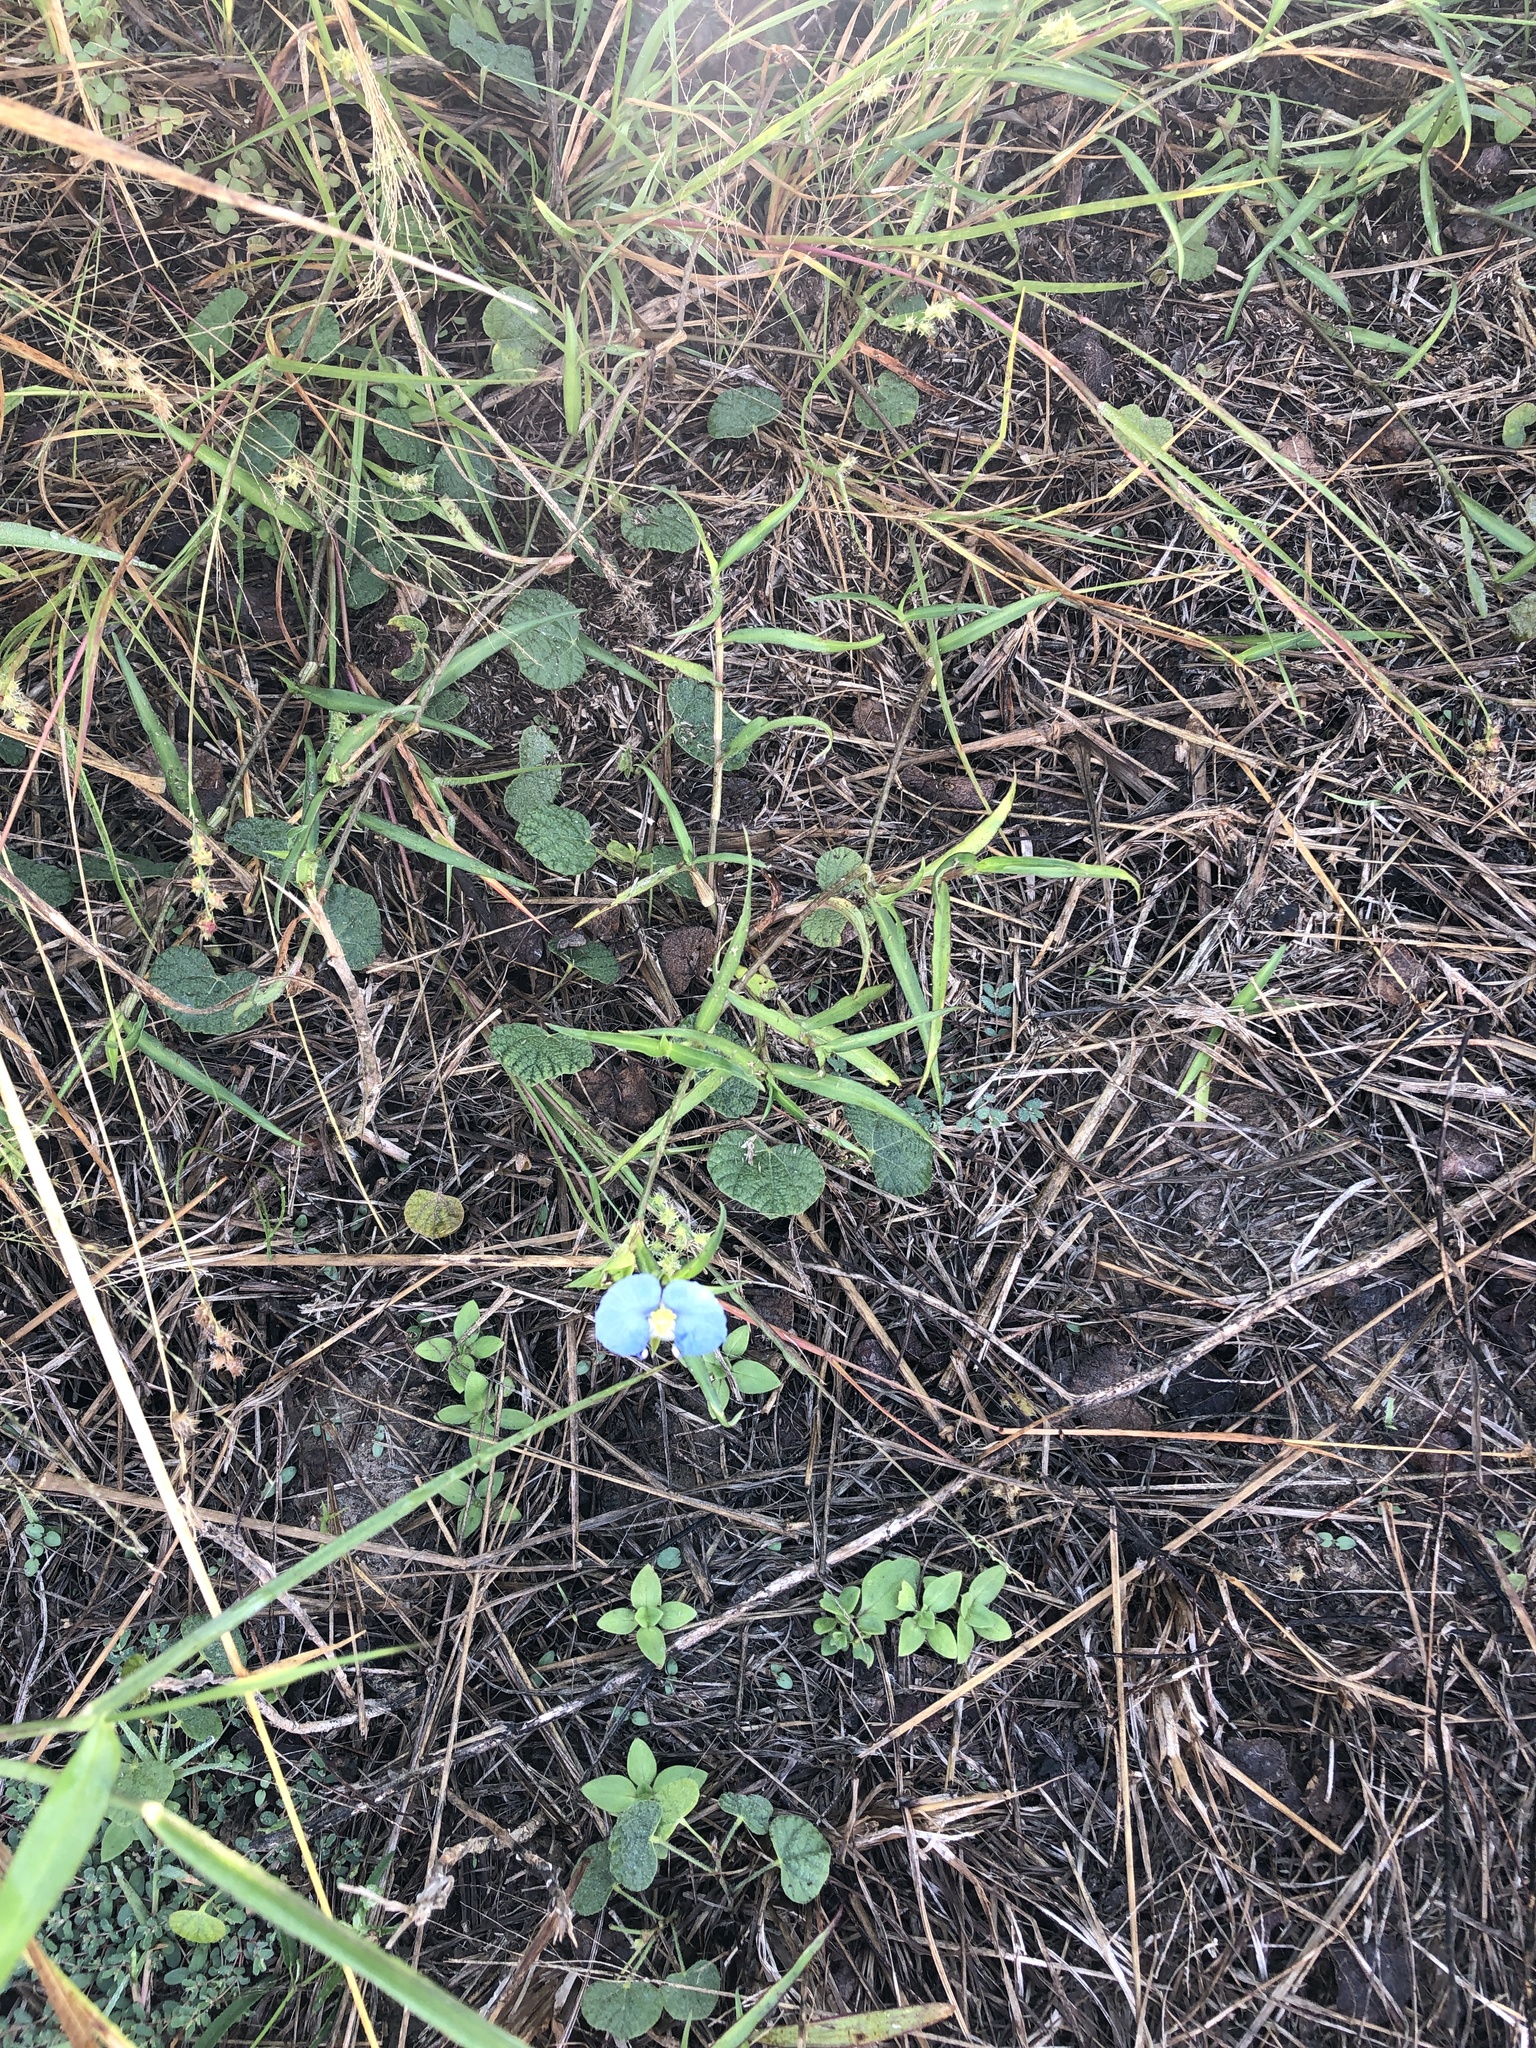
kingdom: Plantae
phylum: Tracheophyta
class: Liliopsida
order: Commelinales
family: Commelinaceae
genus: Commelina
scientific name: Commelina erecta
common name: Blousel blommetjie
